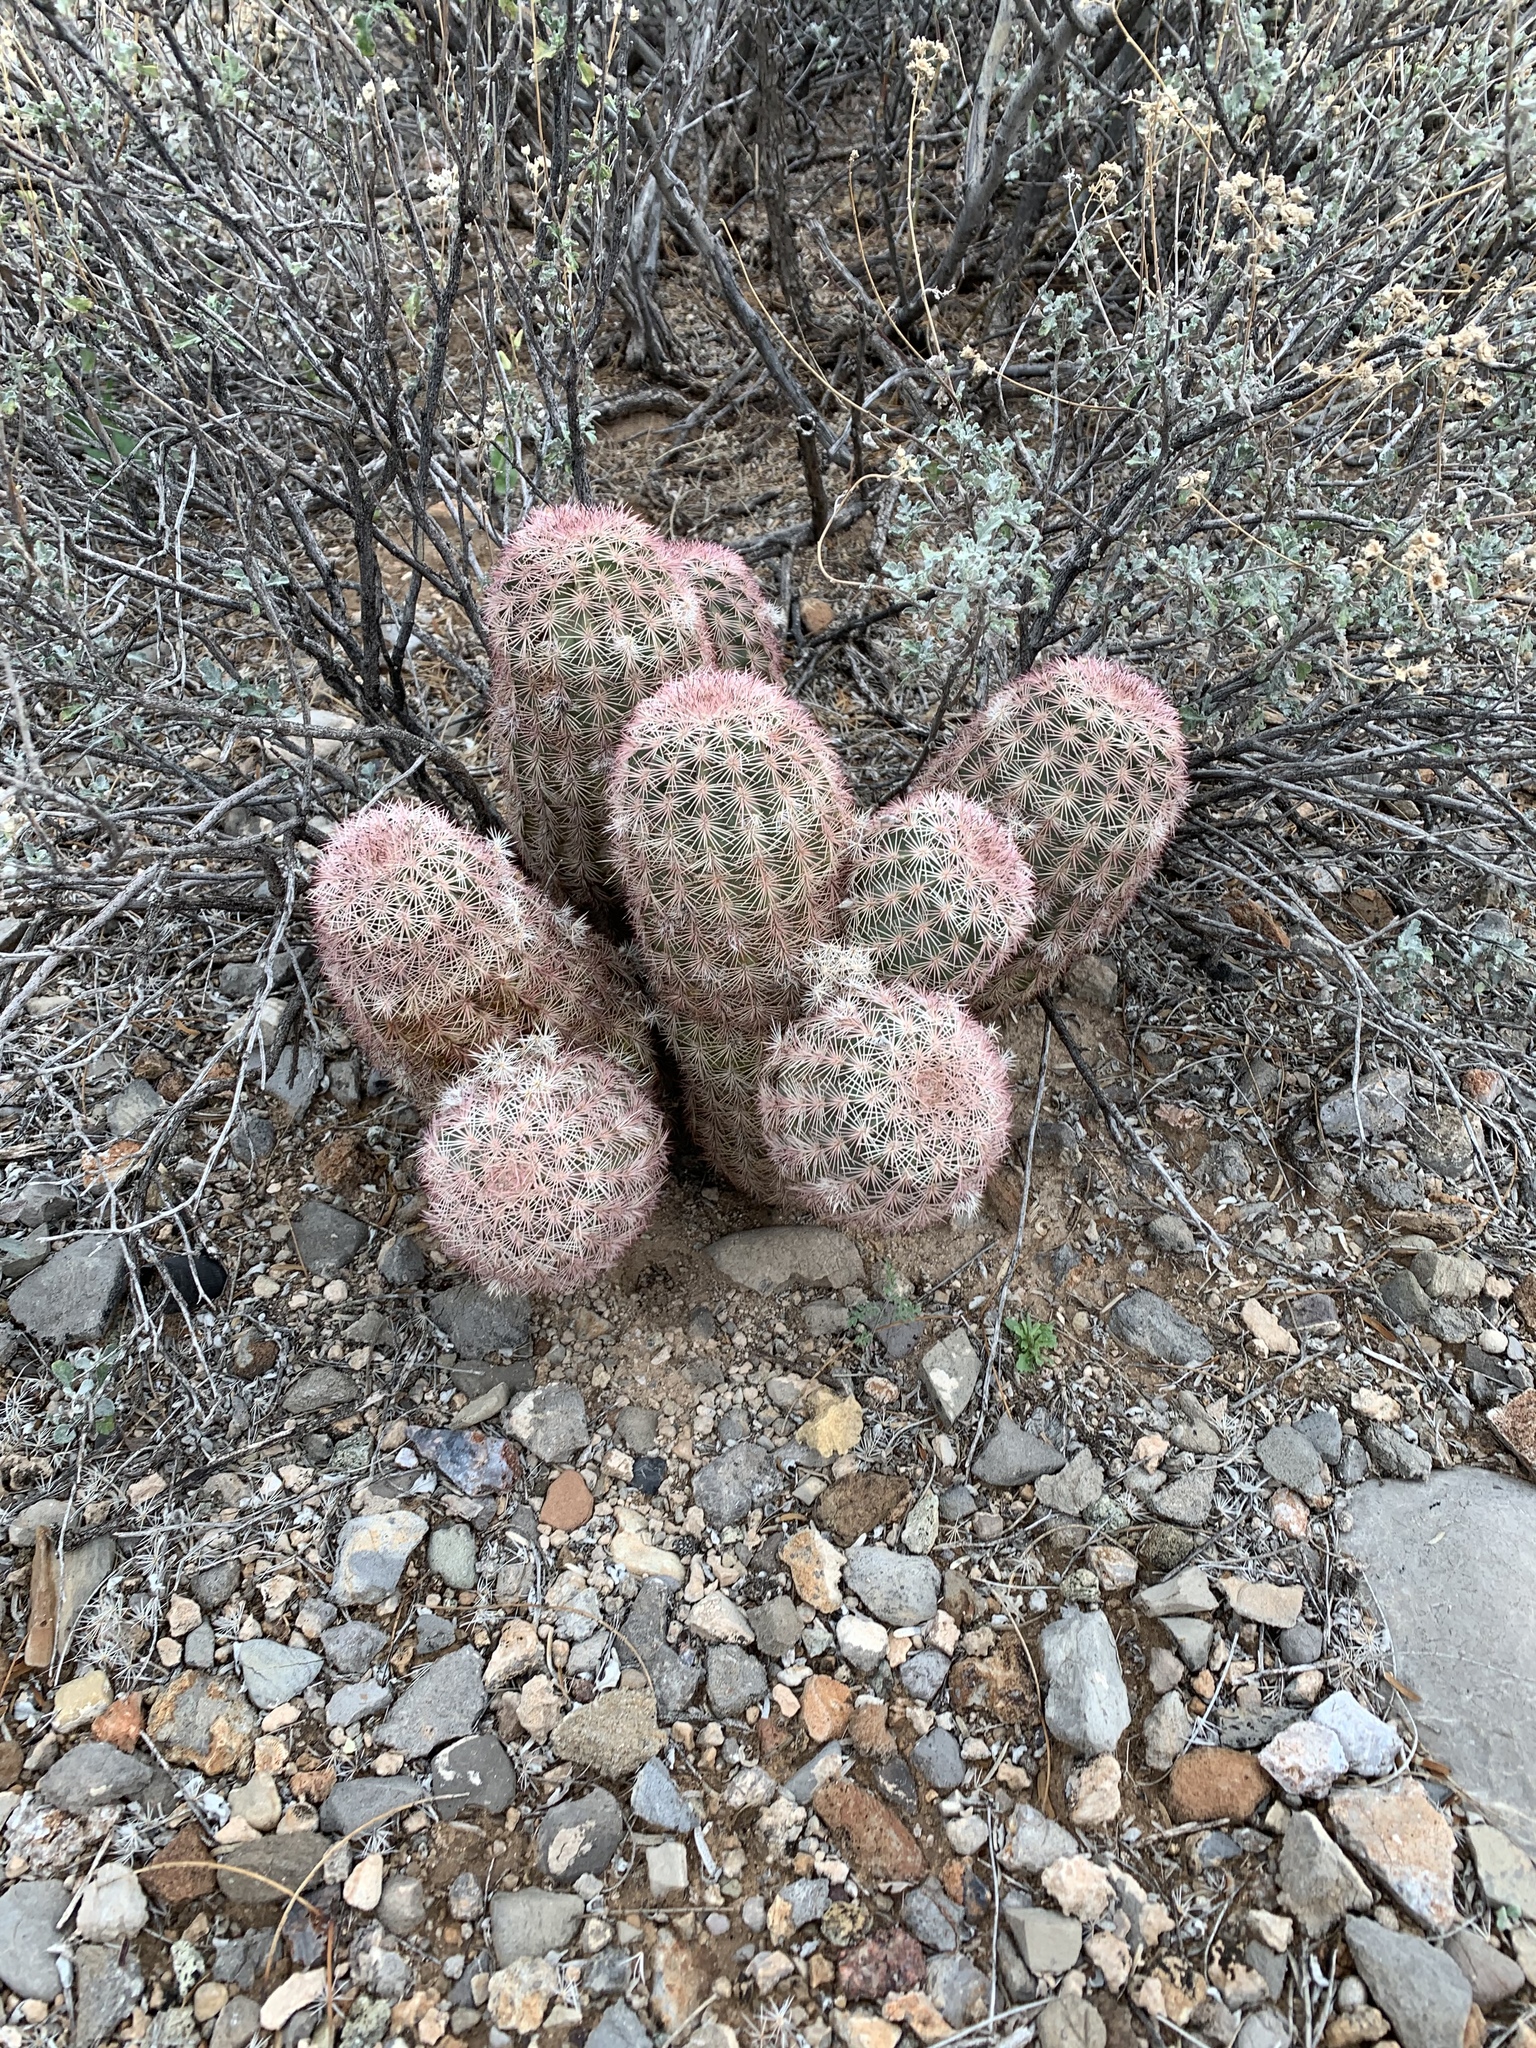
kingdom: Plantae
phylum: Tracheophyta
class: Magnoliopsida
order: Caryophyllales
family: Cactaceae
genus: Echinocereus
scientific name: Echinocereus dasyacanthus
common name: Spiny hedgehog cactus
